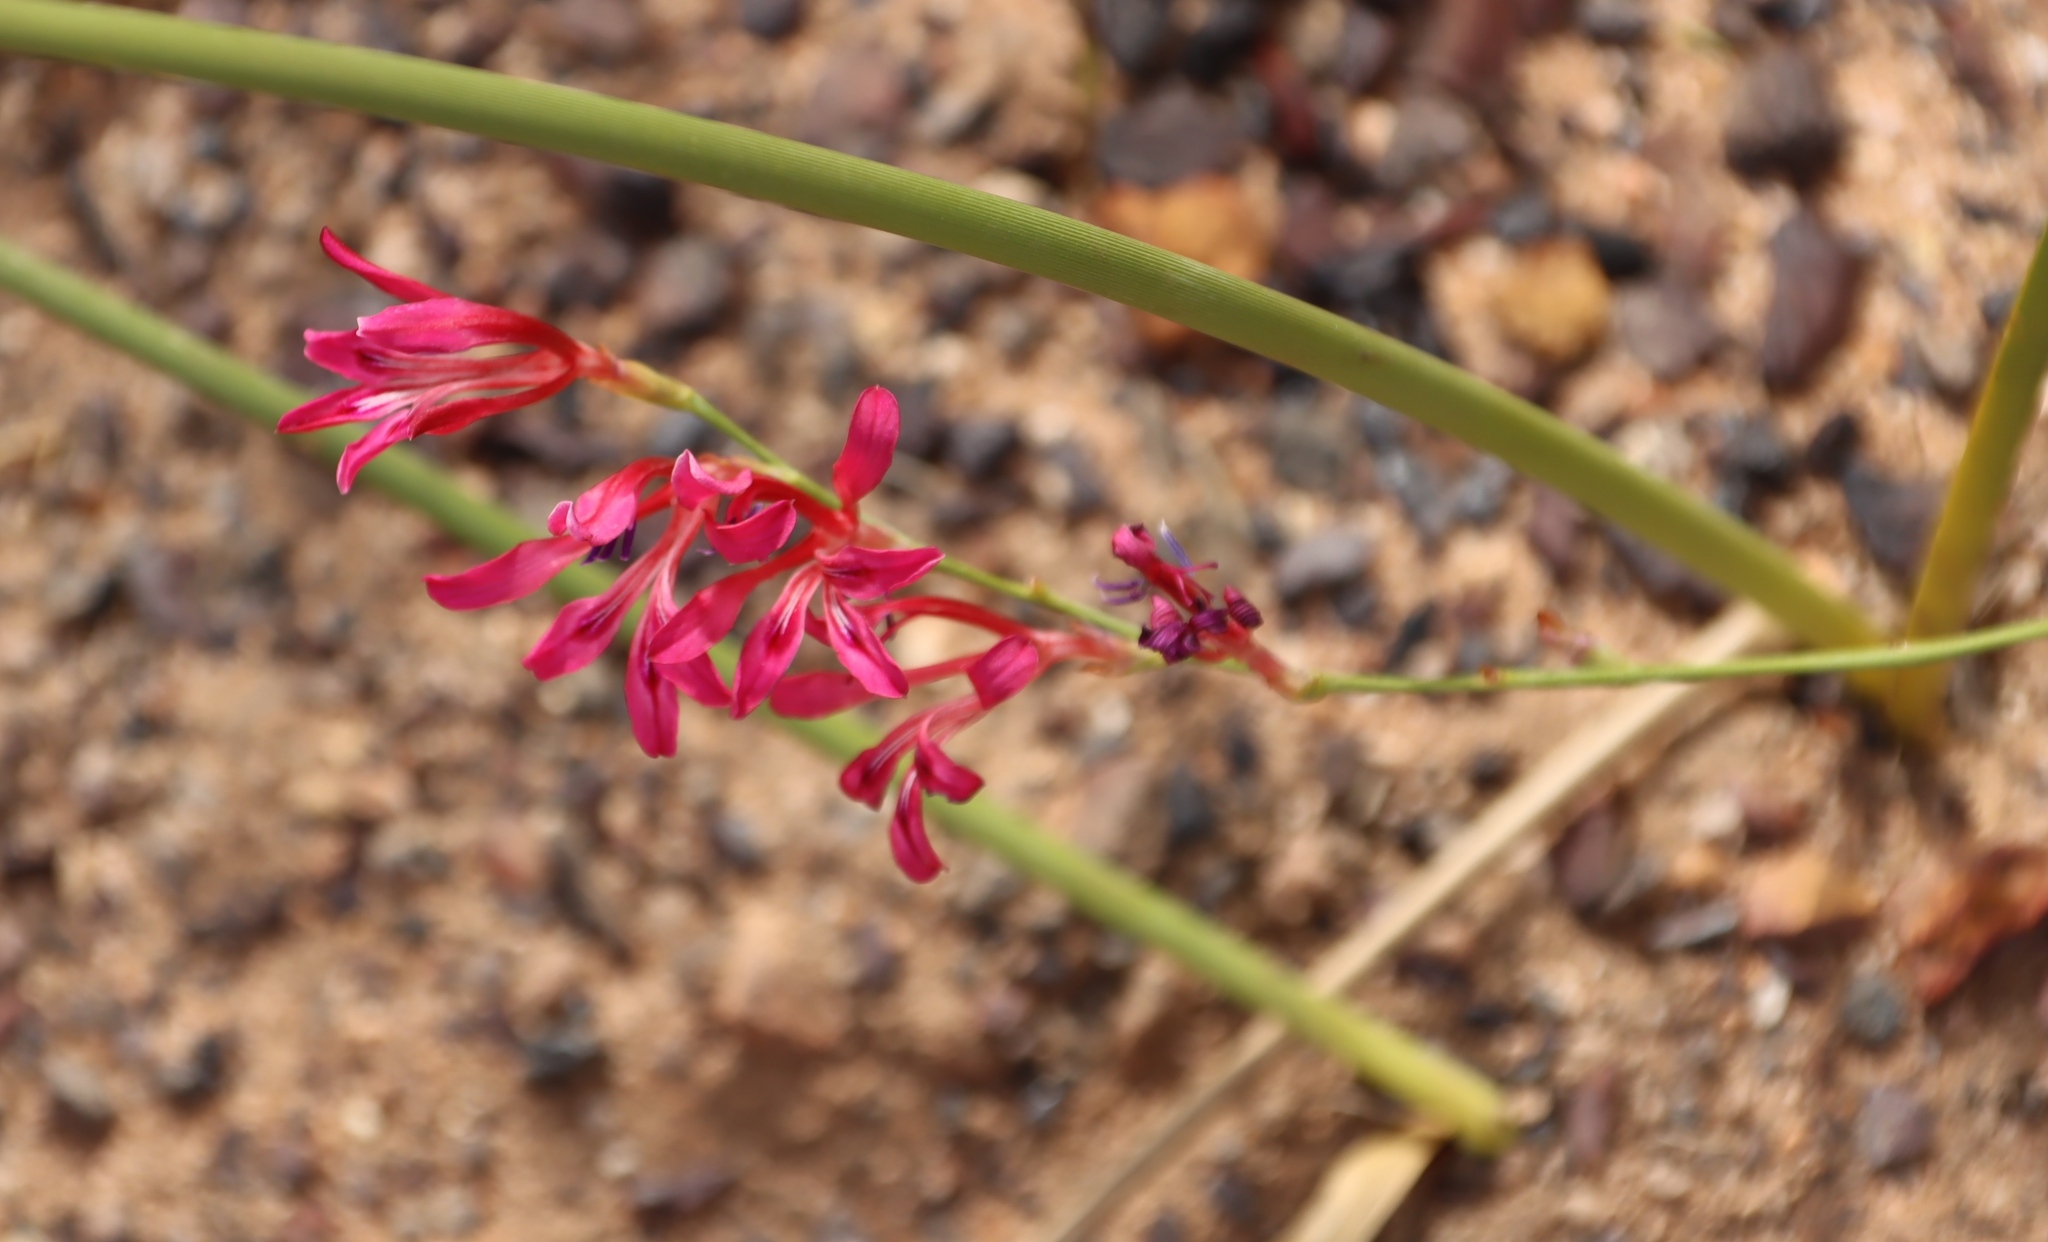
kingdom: Plantae
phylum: Tracheophyta
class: Liliopsida
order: Asparagales
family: Iridaceae
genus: Tritoniopsis
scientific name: Tritoniopsis ramosa
